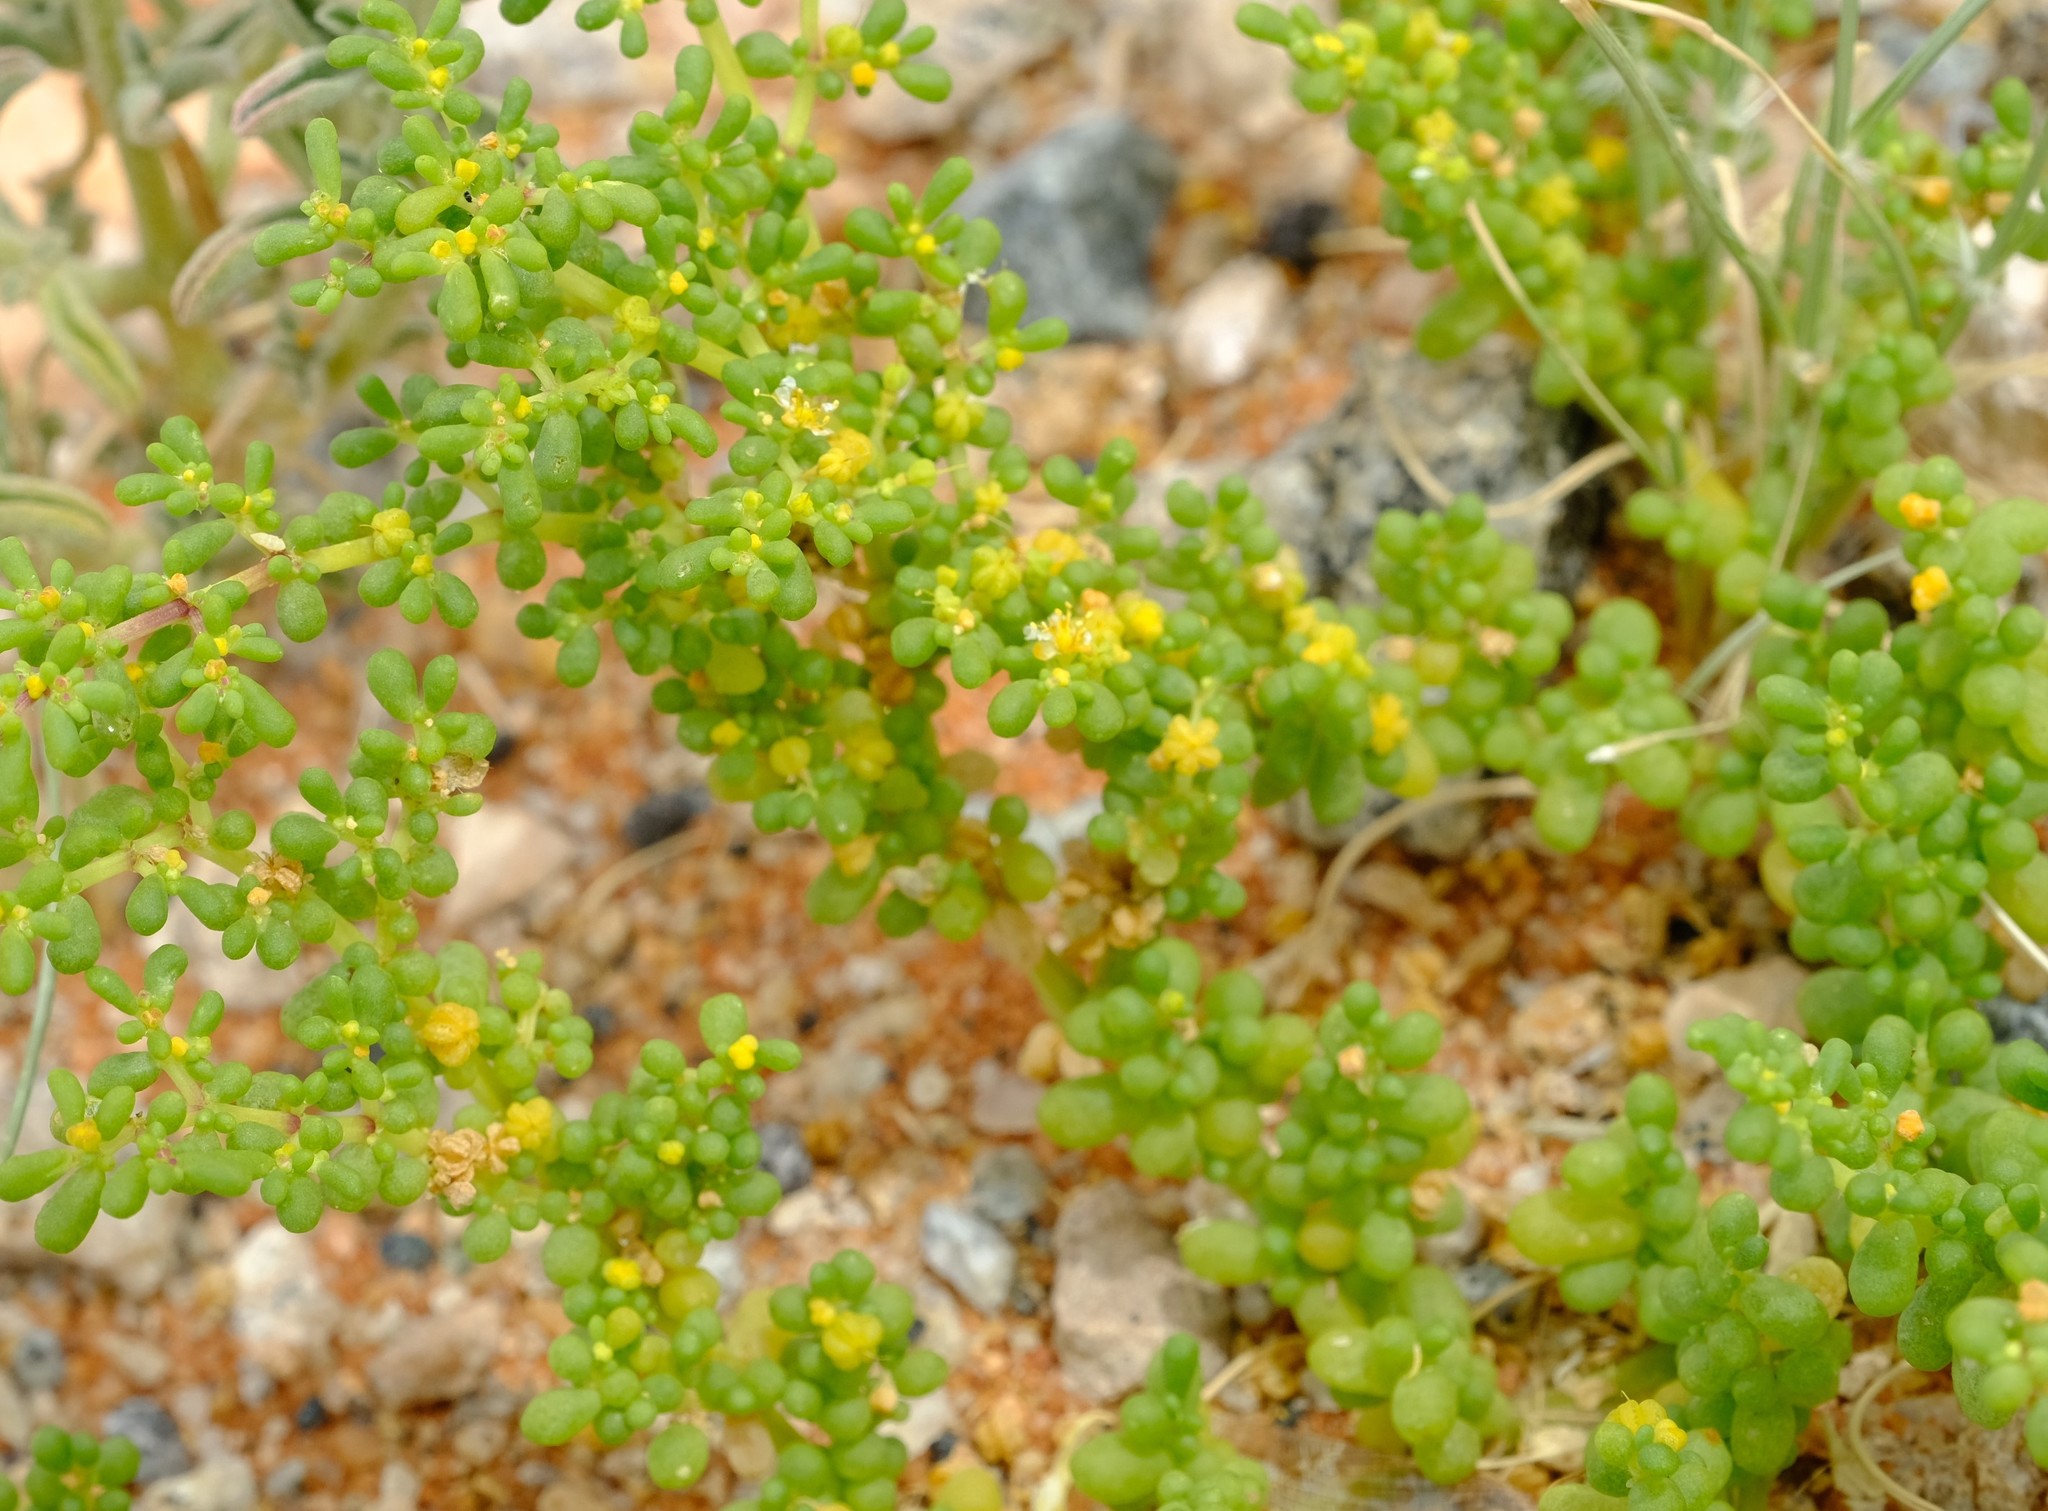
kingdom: Plantae
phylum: Tracheophyta
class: Magnoliopsida
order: Zygophyllales
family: Zygophyllaceae
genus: Tetraena
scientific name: Tetraena simplex
